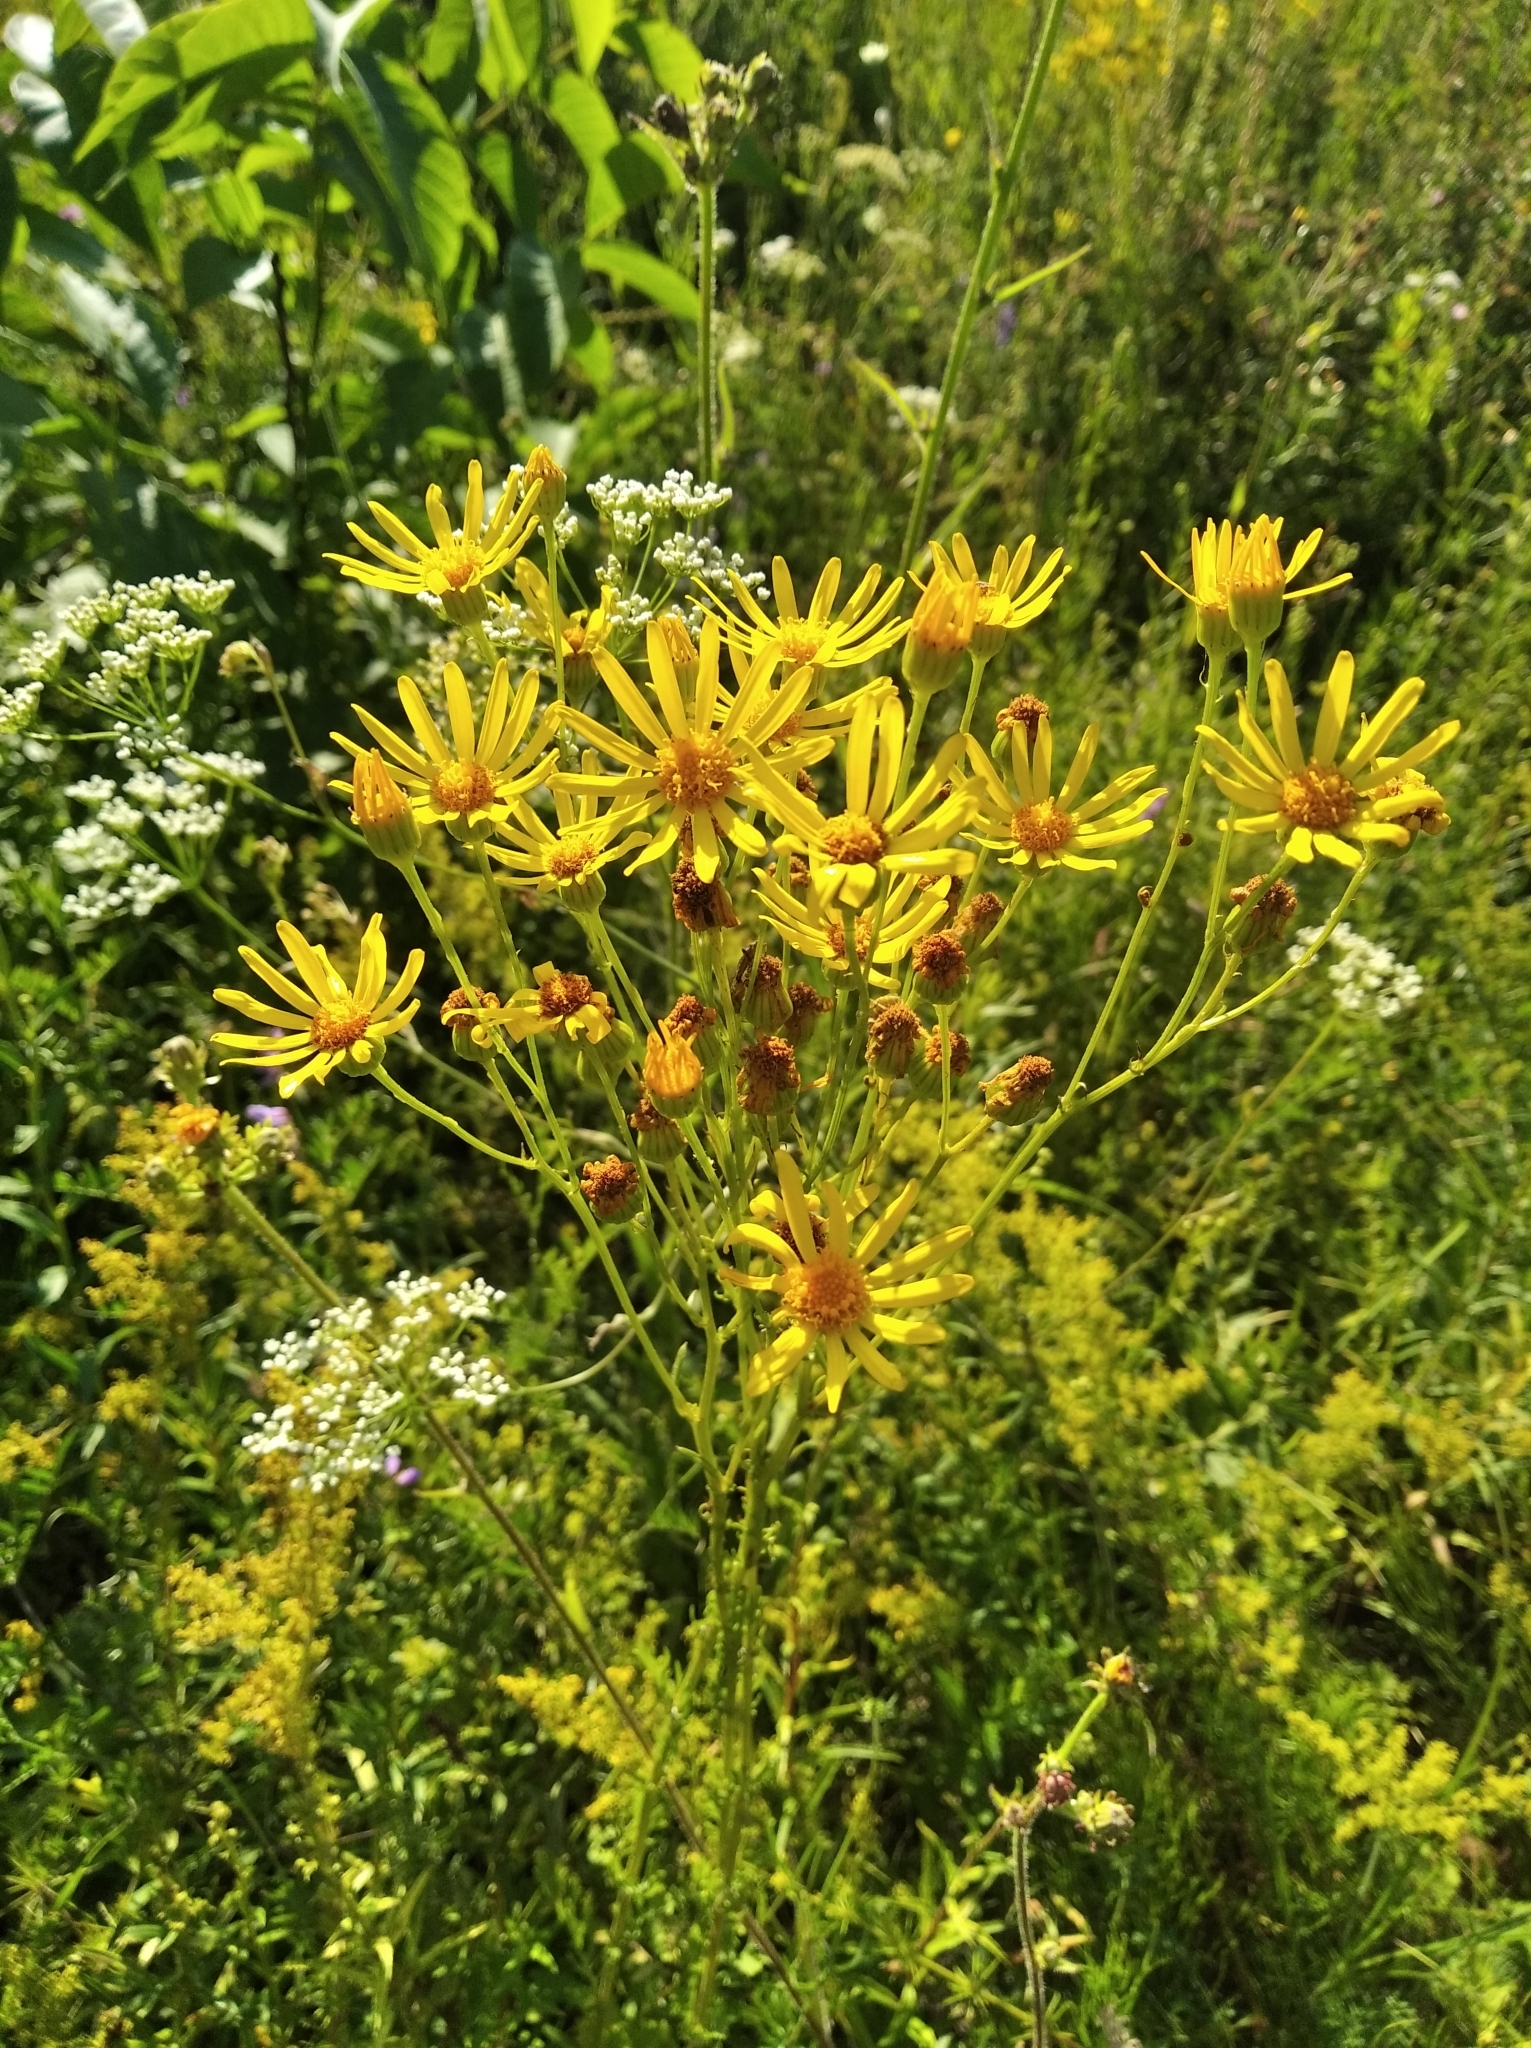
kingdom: Plantae
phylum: Tracheophyta
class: Magnoliopsida
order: Asterales
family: Asteraceae
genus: Jacobaea
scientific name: Jacobaea vulgaris
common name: Stinking willie
